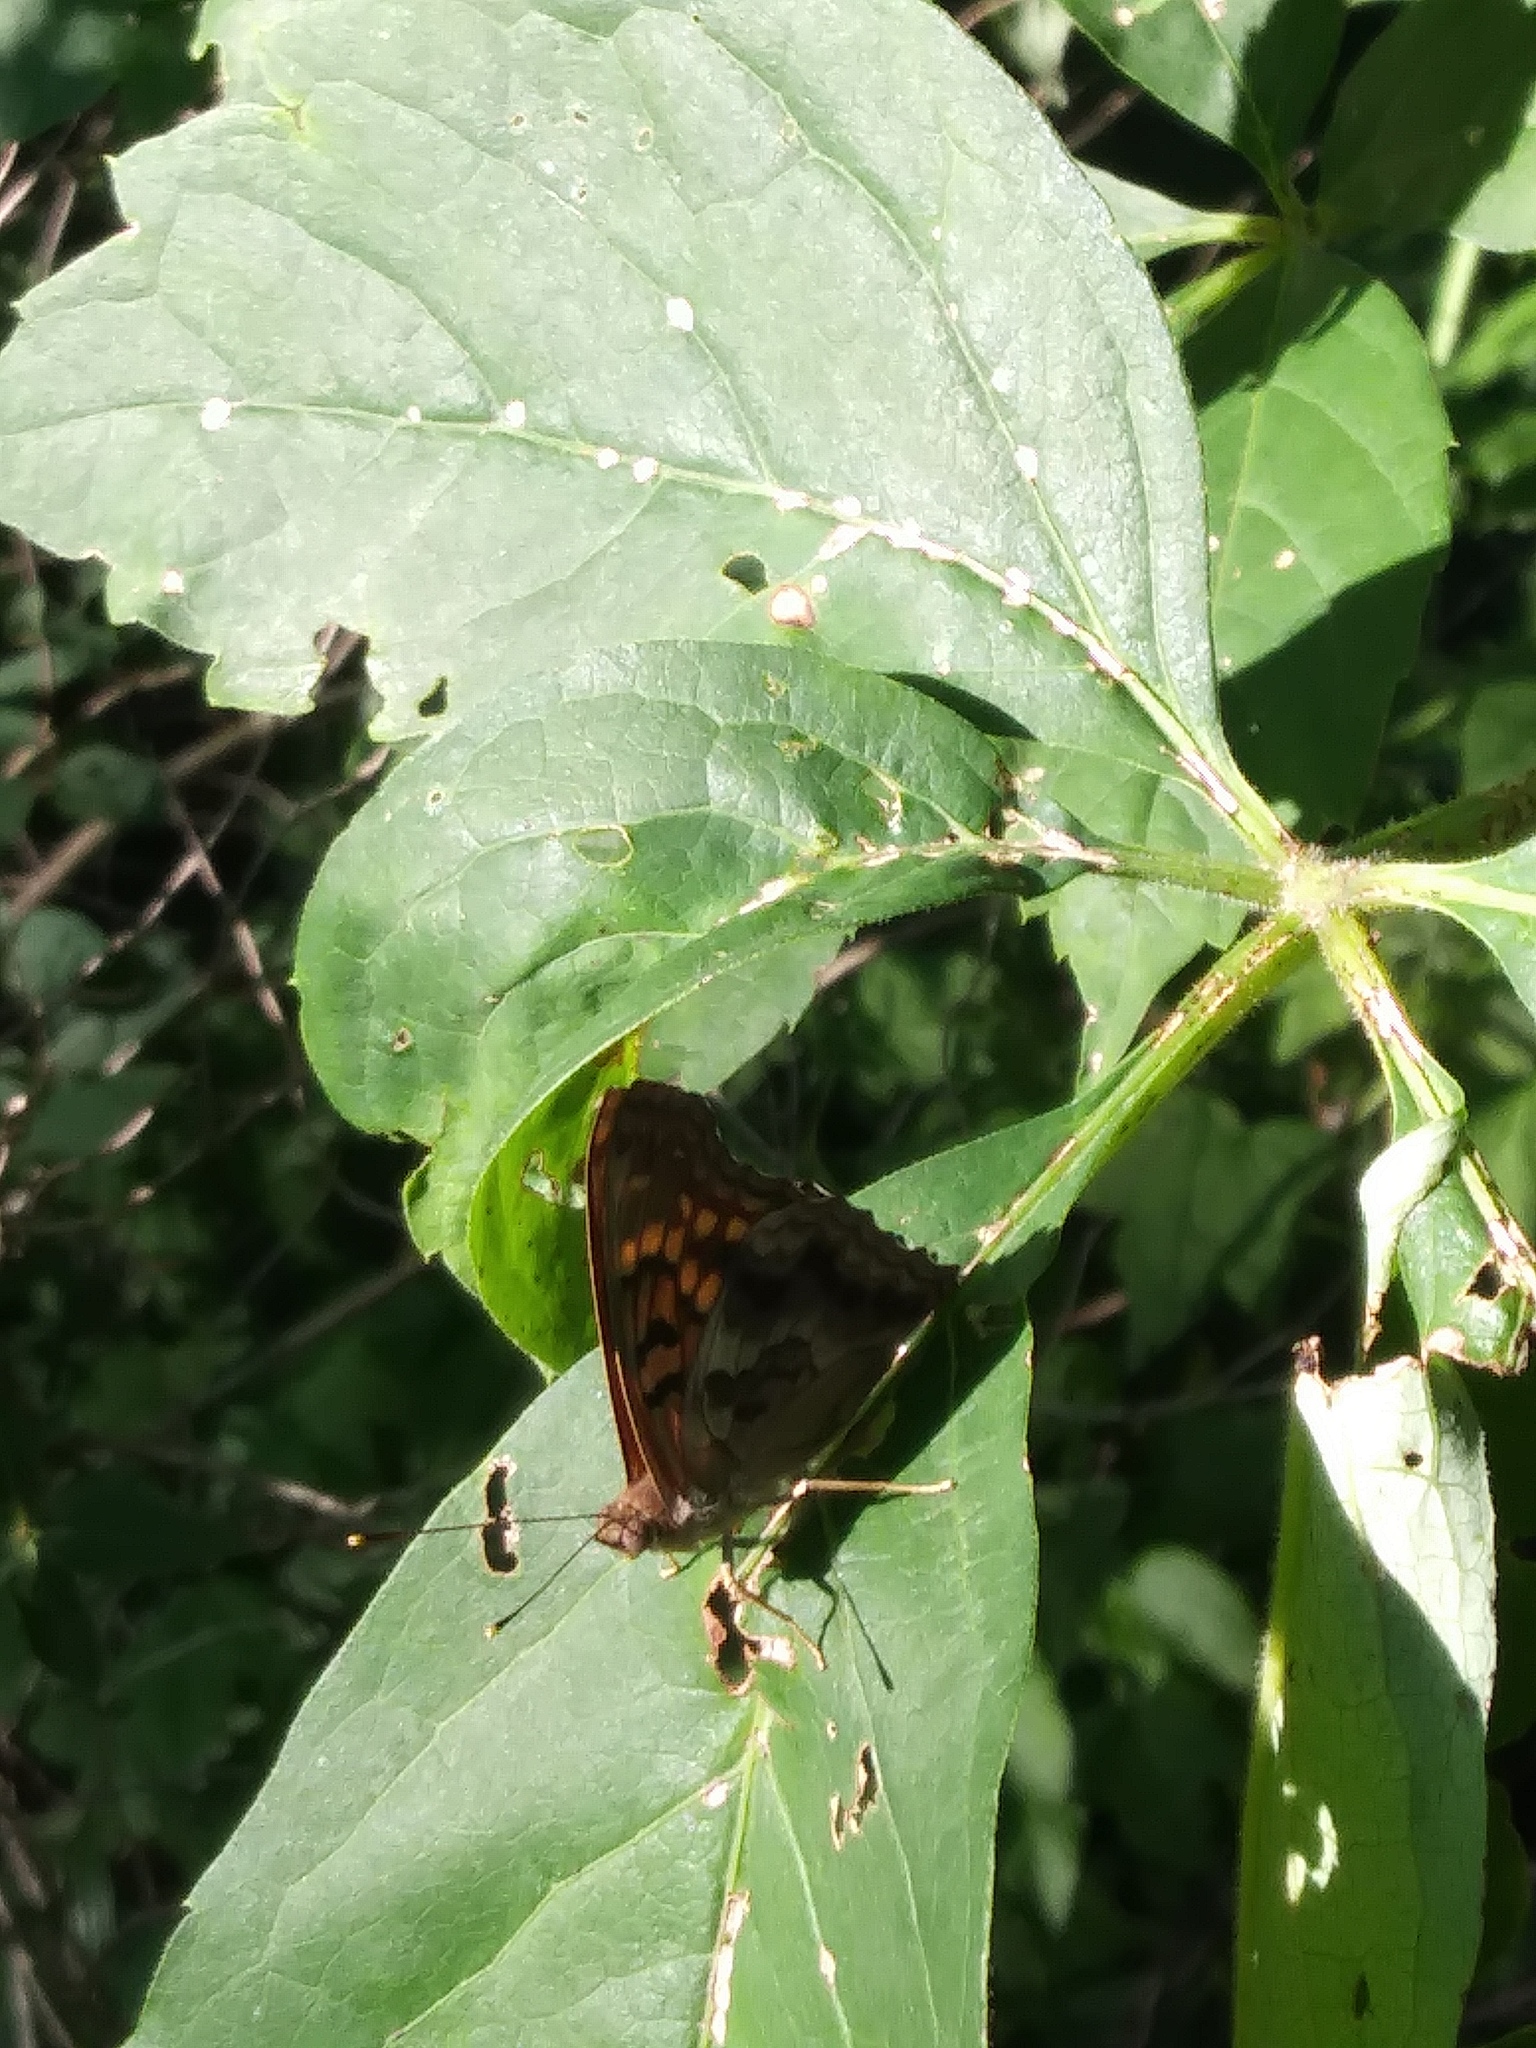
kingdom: Animalia
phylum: Arthropoda
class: Insecta
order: Lepidoptera
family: Nymphalidae
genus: Asterocampa
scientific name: Asterocampa clyton
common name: Tawny emperor
